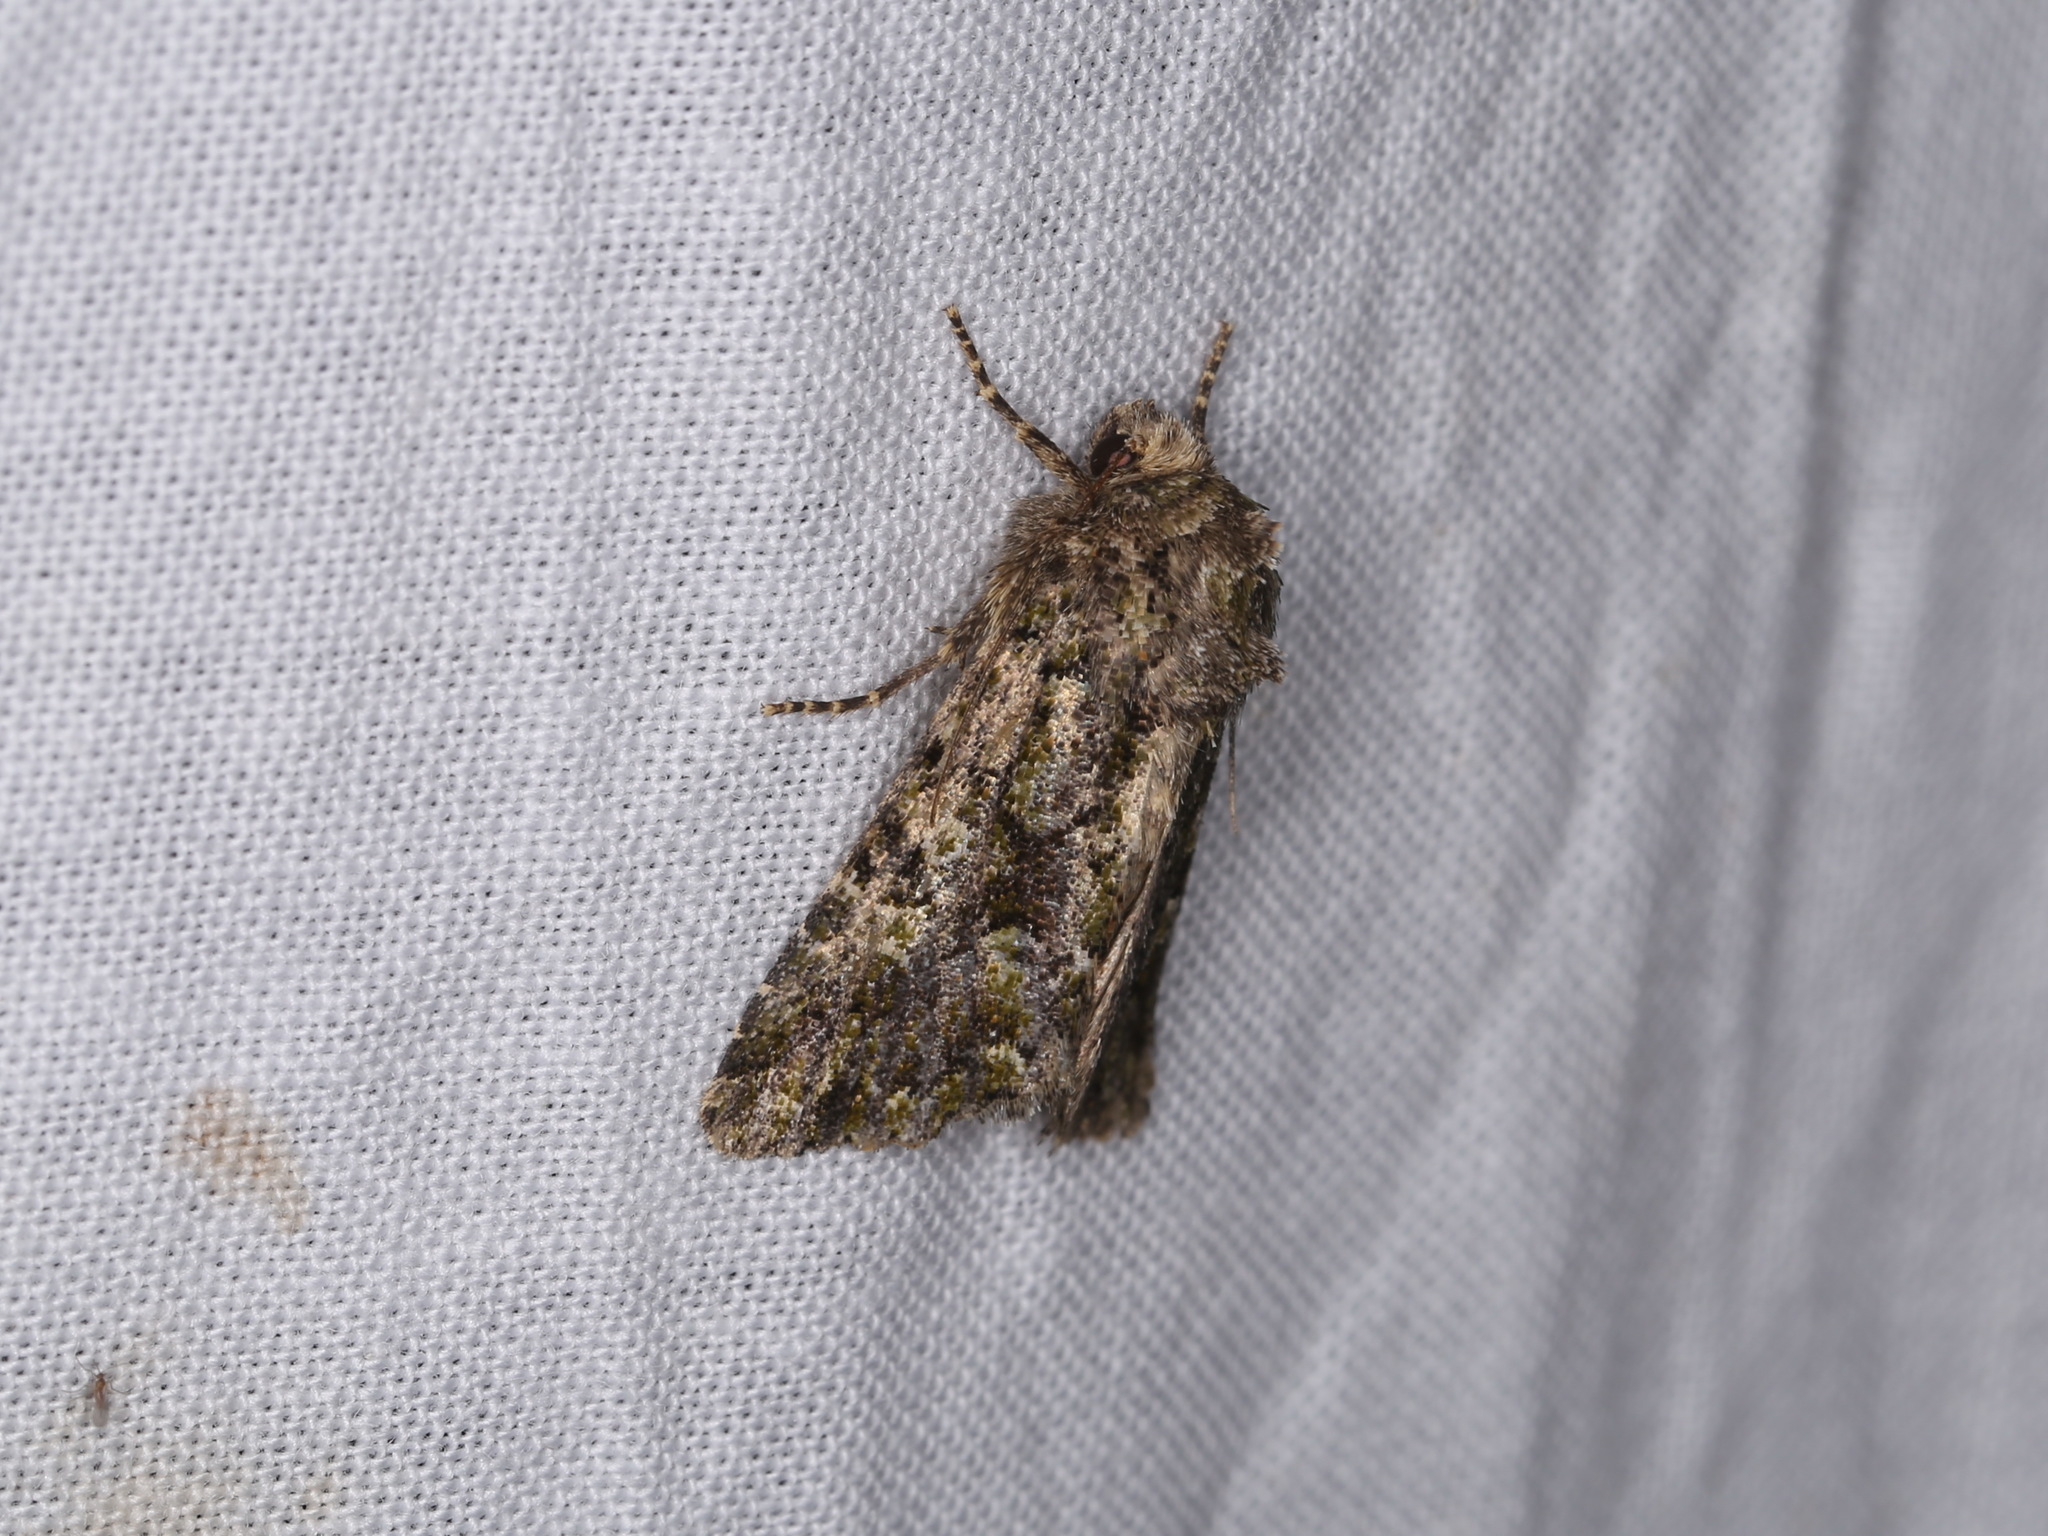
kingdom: Animalia
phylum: Arthropoda
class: Insecta
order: Lepidoptera
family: Noctuidae
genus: Aseptis
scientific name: Aseptis marina
